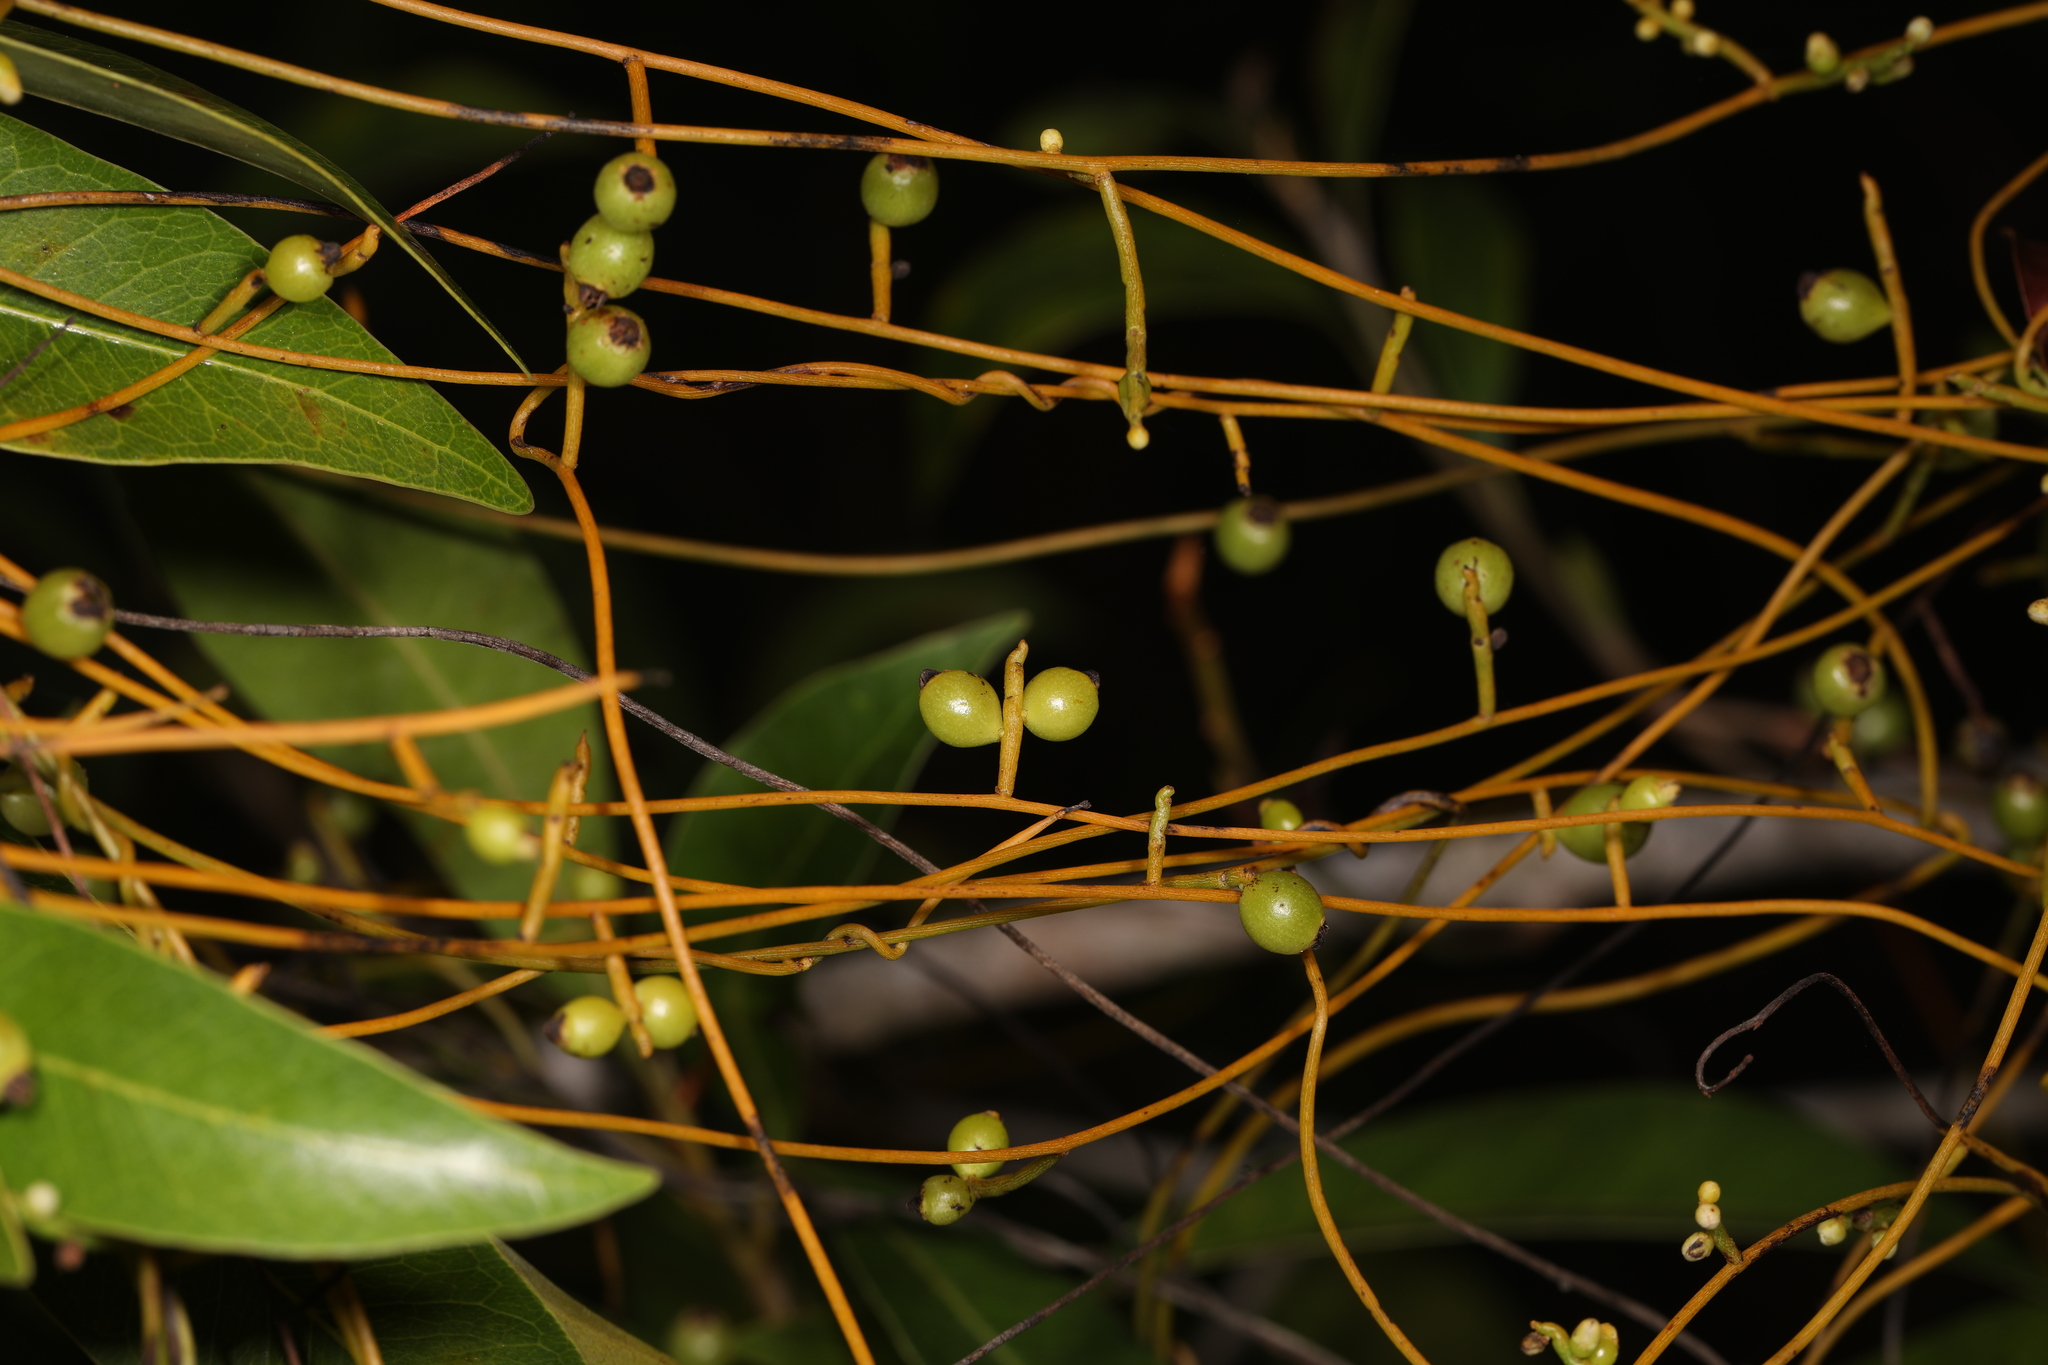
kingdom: Plantae
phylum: Tracheophyta
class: Magnoliopsida
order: Laurales
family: Lauraceae
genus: Cassytha
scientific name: Cassytha filiformis
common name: Dodder-laurel
